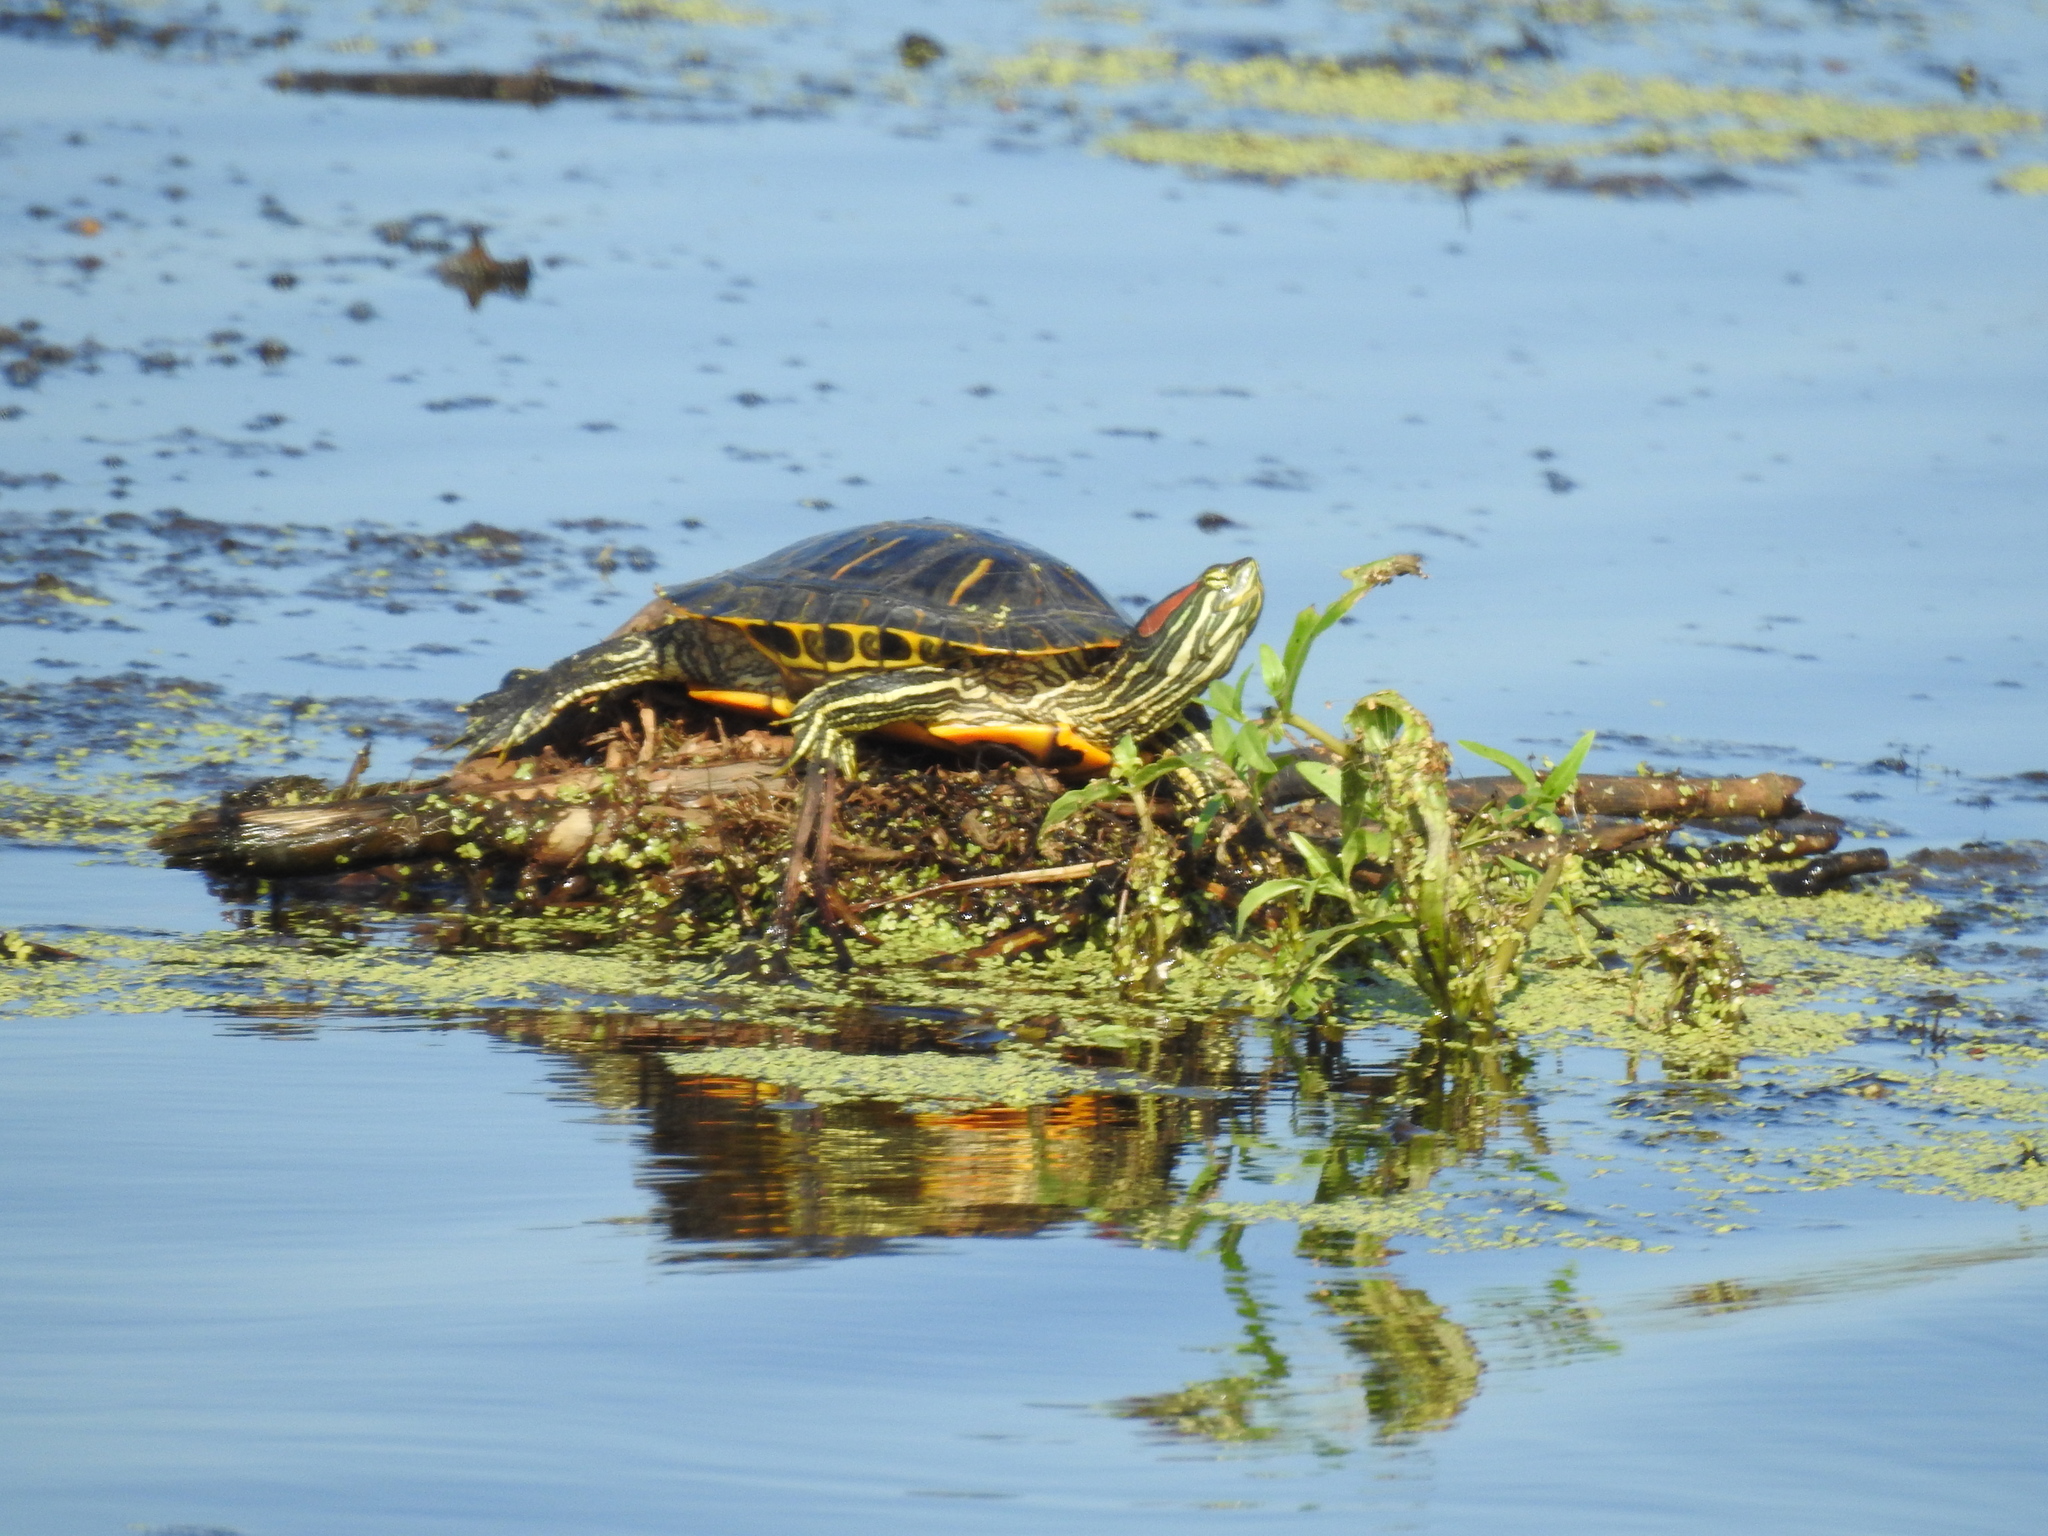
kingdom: Animalia
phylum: Chordata
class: Testudines
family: Emydidae
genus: Trachemys
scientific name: Trachemys scripta
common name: Slider
